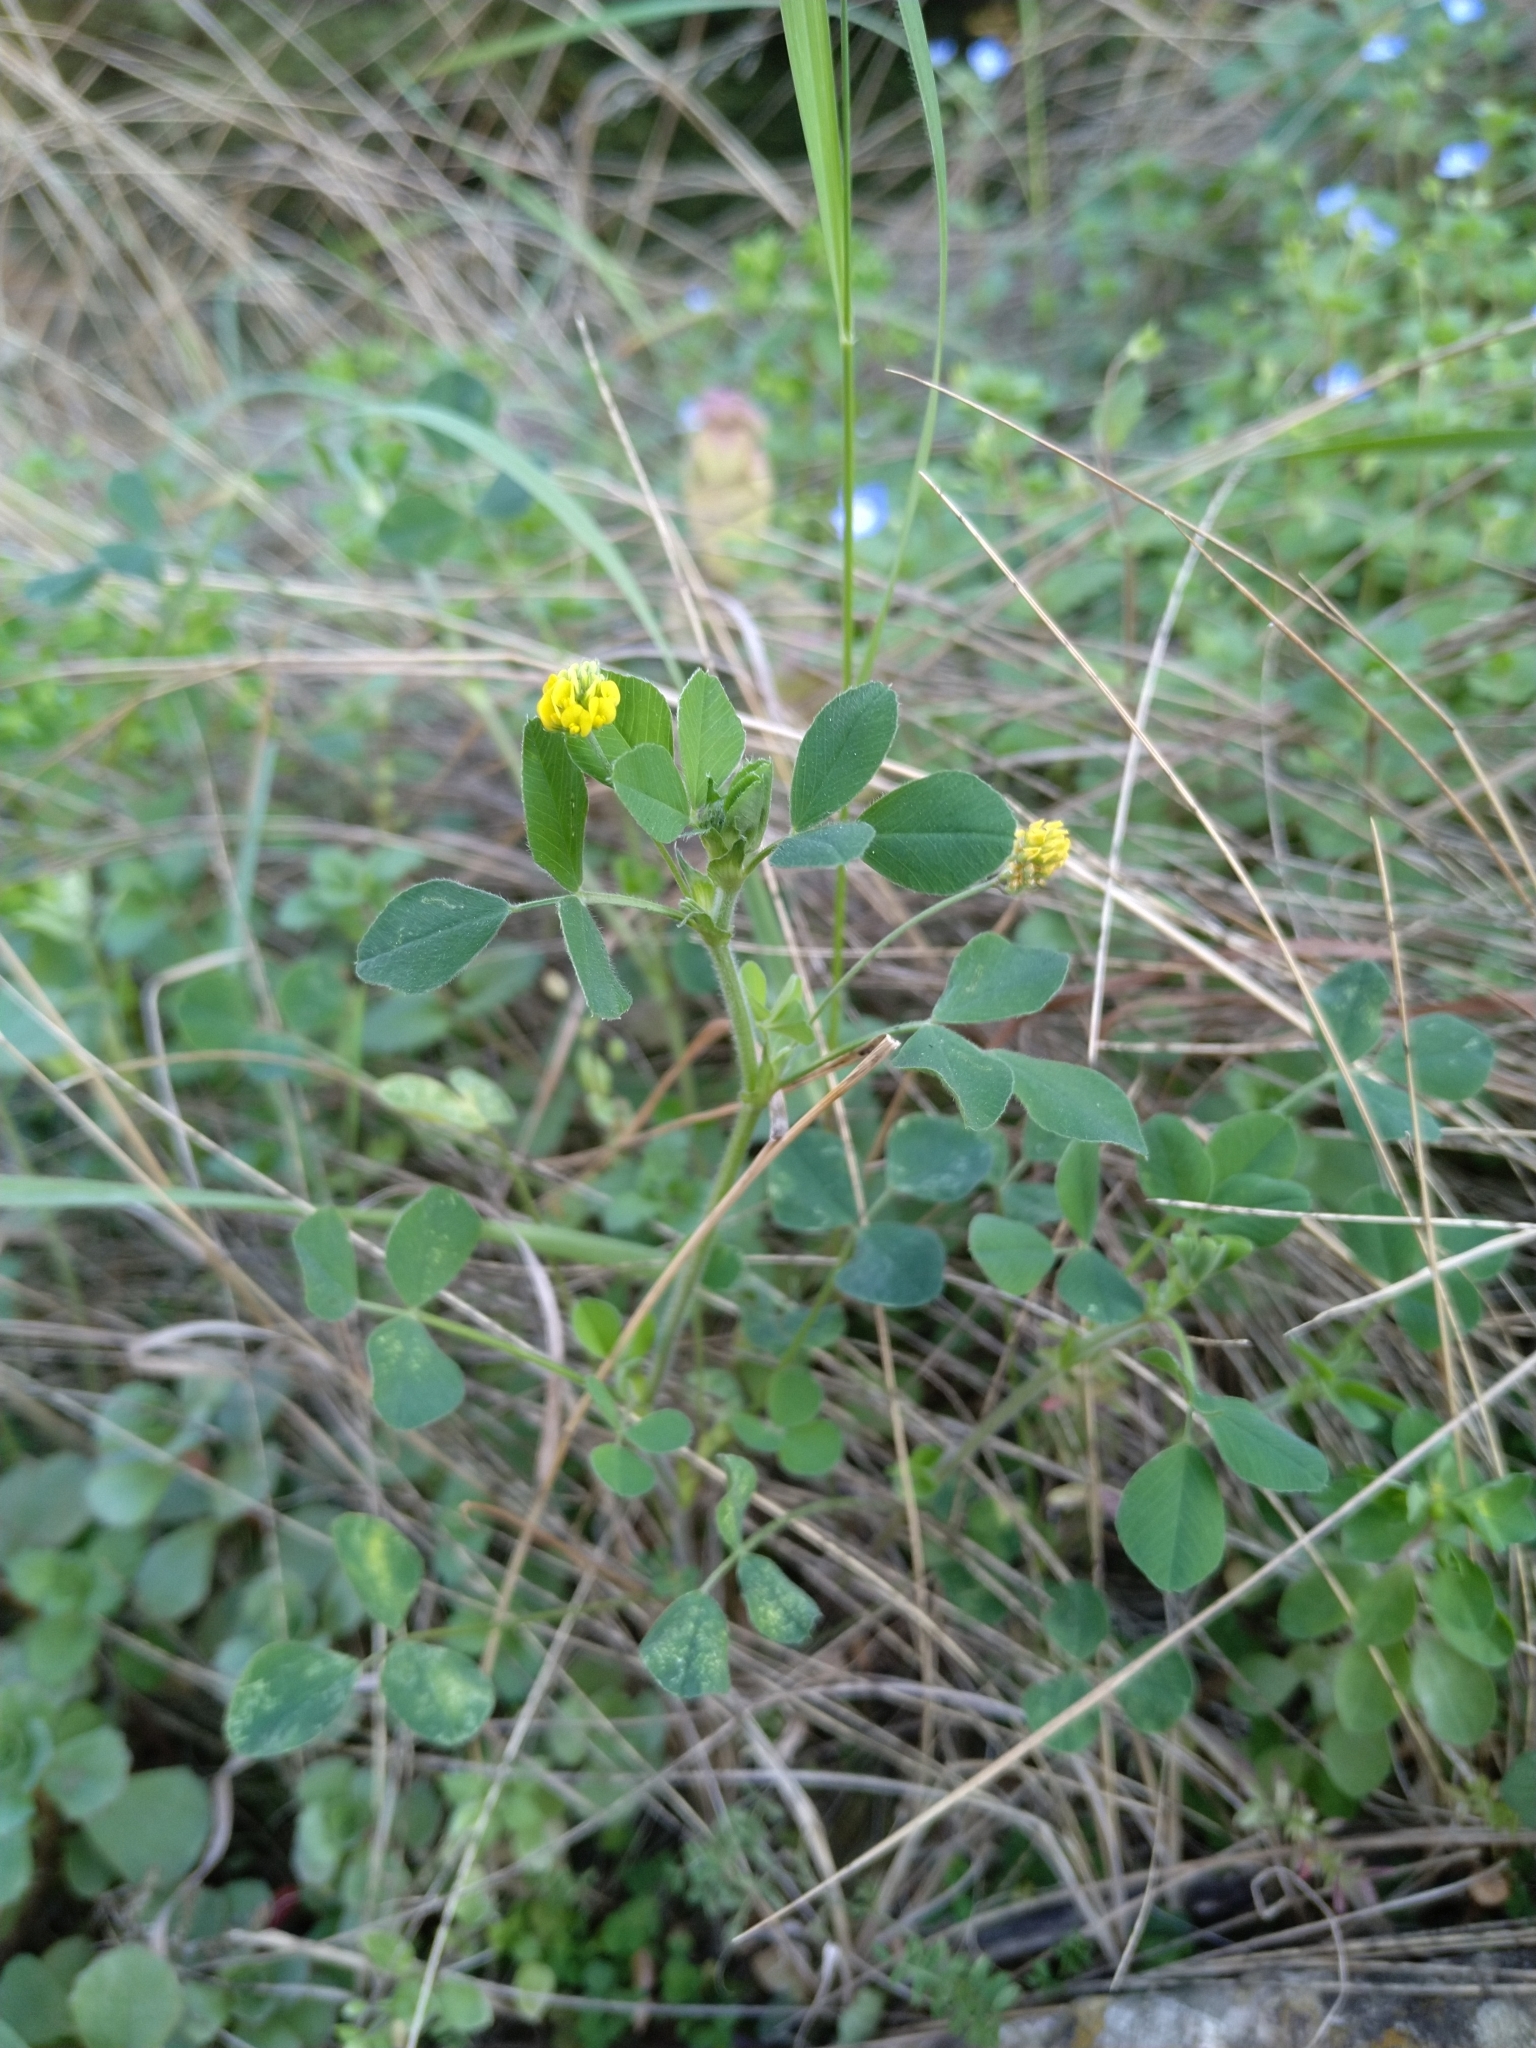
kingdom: Plantae
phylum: Tracheophyta
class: Magnoliopsida
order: Fabales
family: Fabaceae
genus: Medicago
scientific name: Medicago lupulina
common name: Black medick
